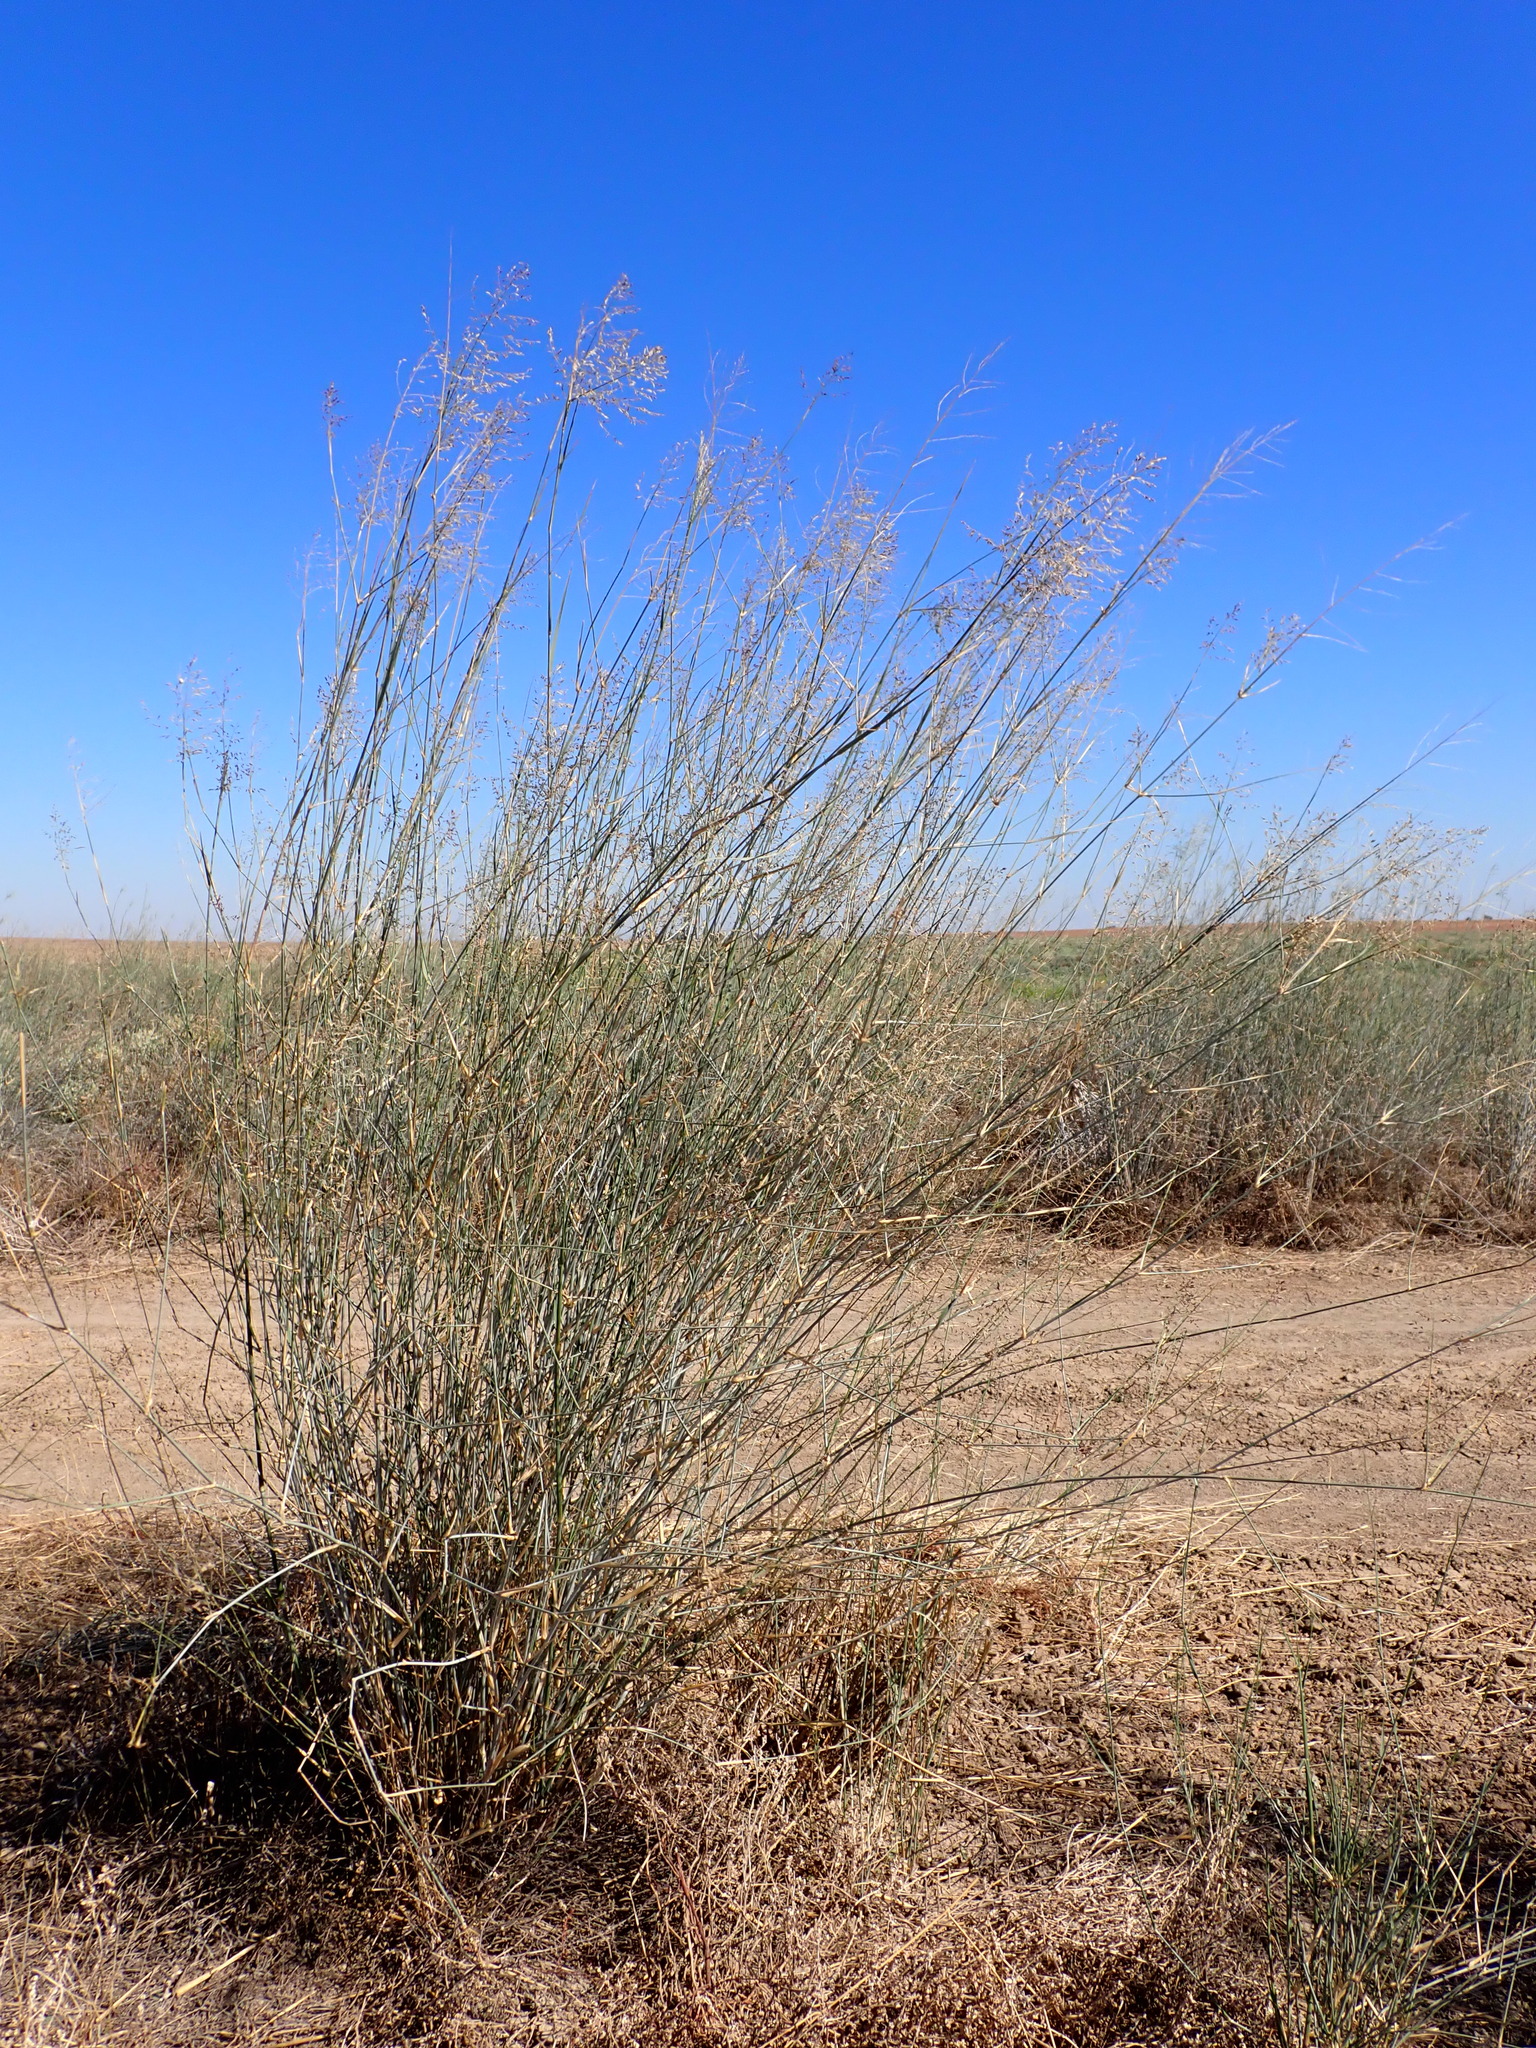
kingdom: Plantae
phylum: Tracheophyta
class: Liliopsida
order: Poales
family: Poaceae
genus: Sporobolus
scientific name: Sporobolus ramigerus
